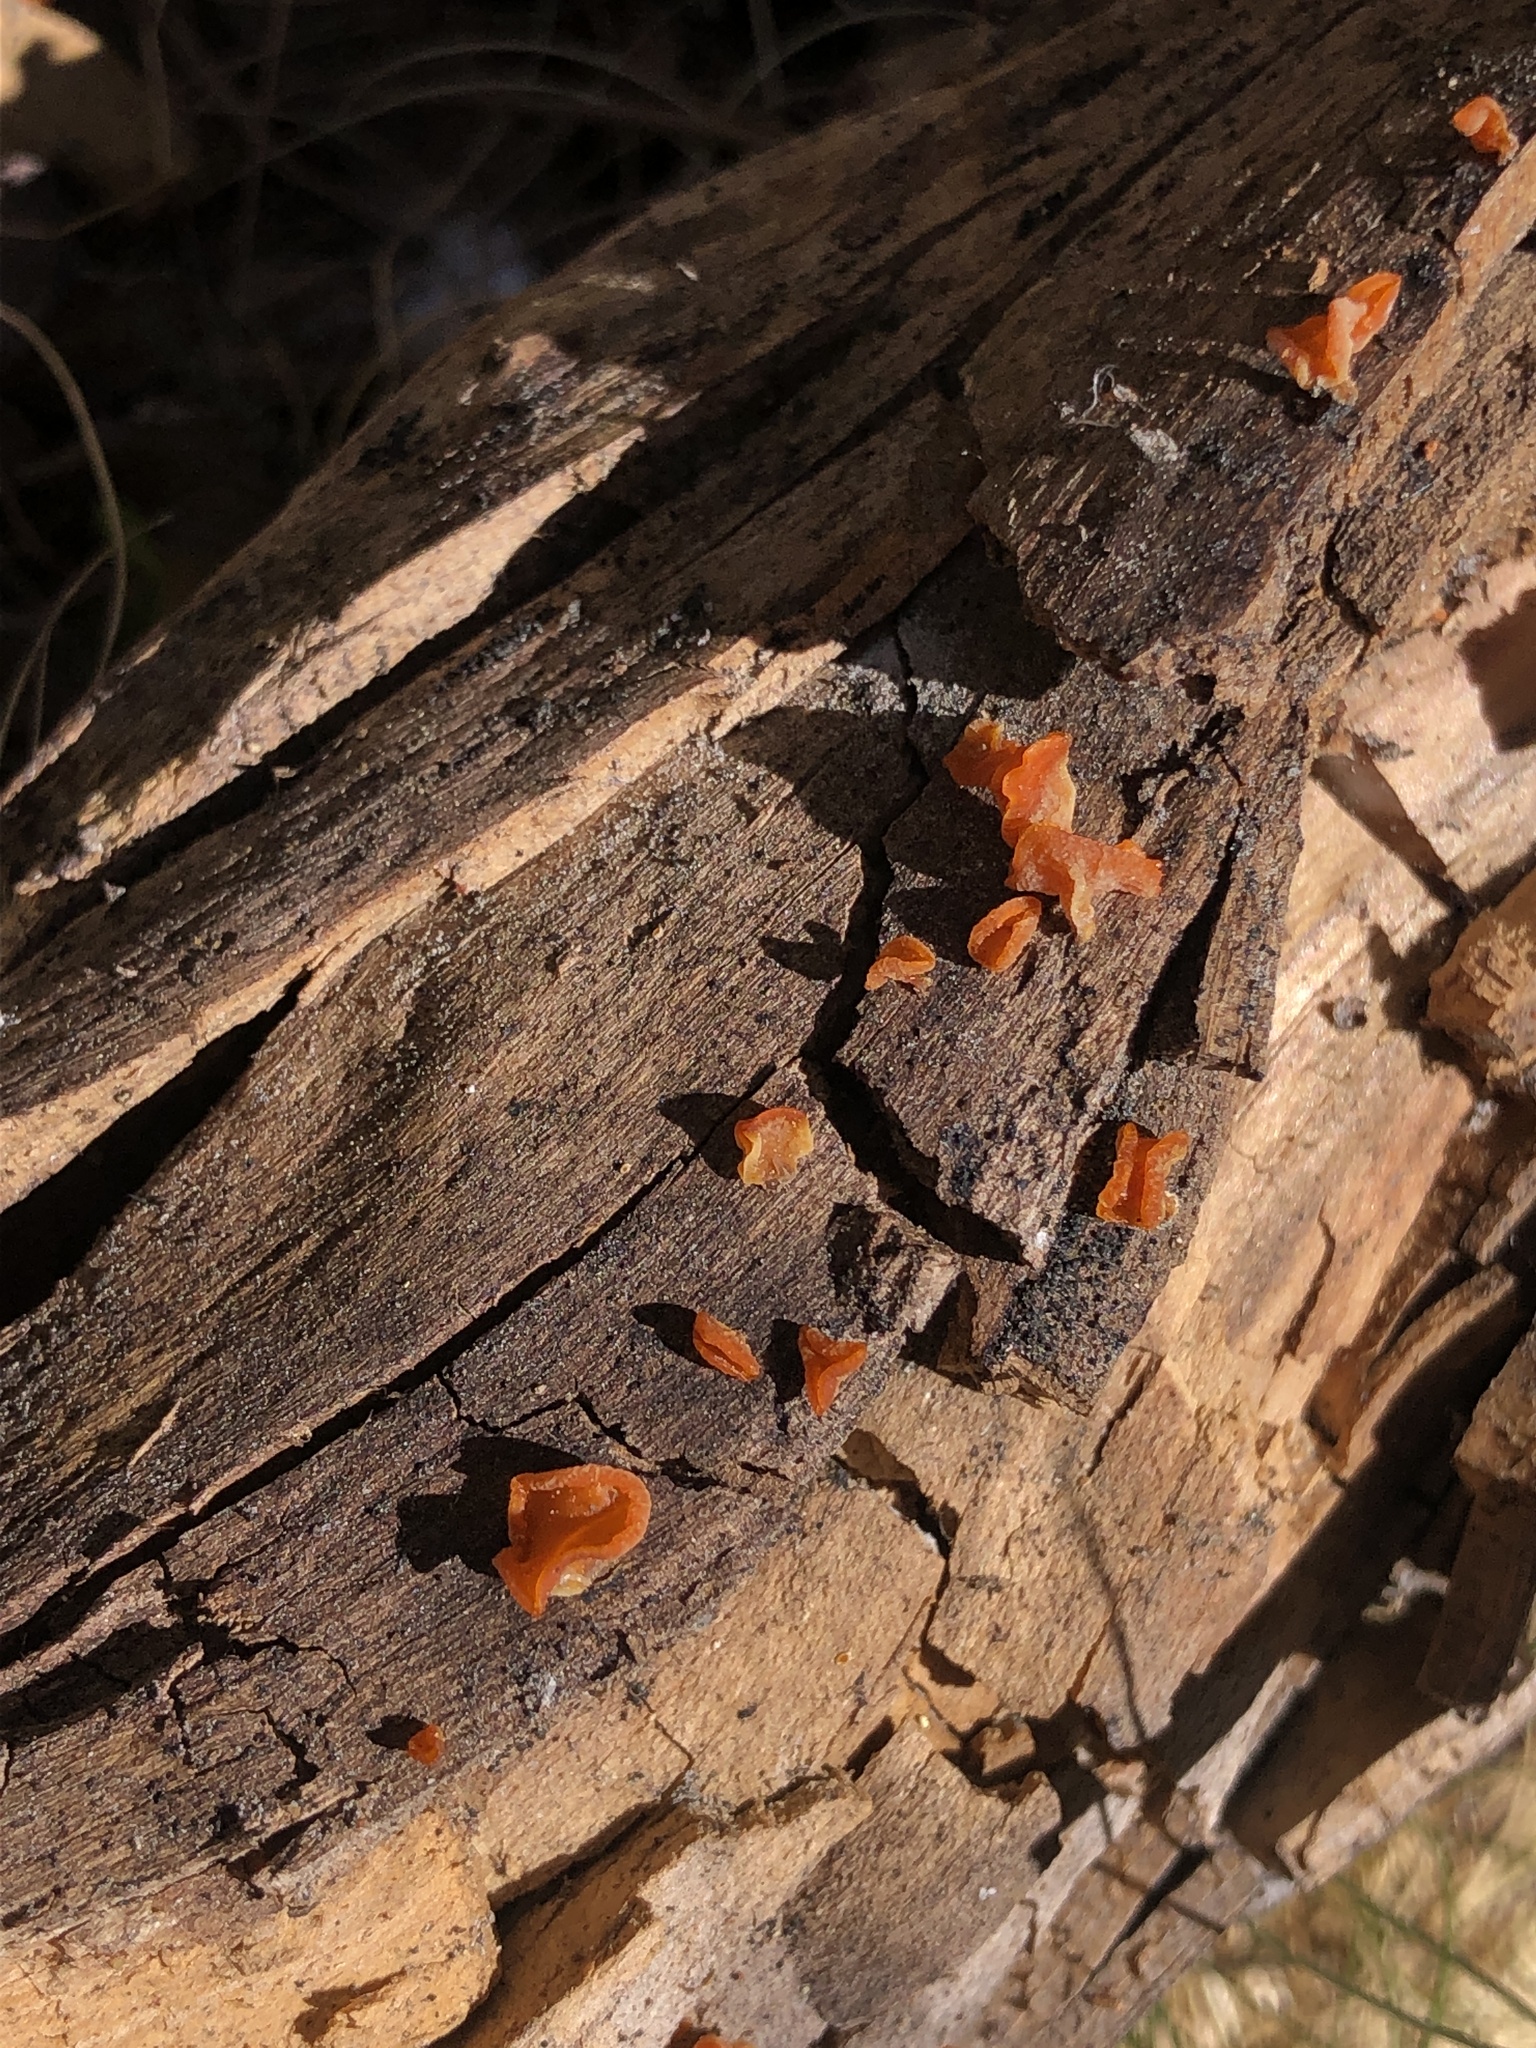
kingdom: Fungi
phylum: Basidiomycota
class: Dacrymycetes
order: Dacrymycetales
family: Dacrymycetaceae
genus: Guepiniopsis
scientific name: Guepiniopsis alpina
